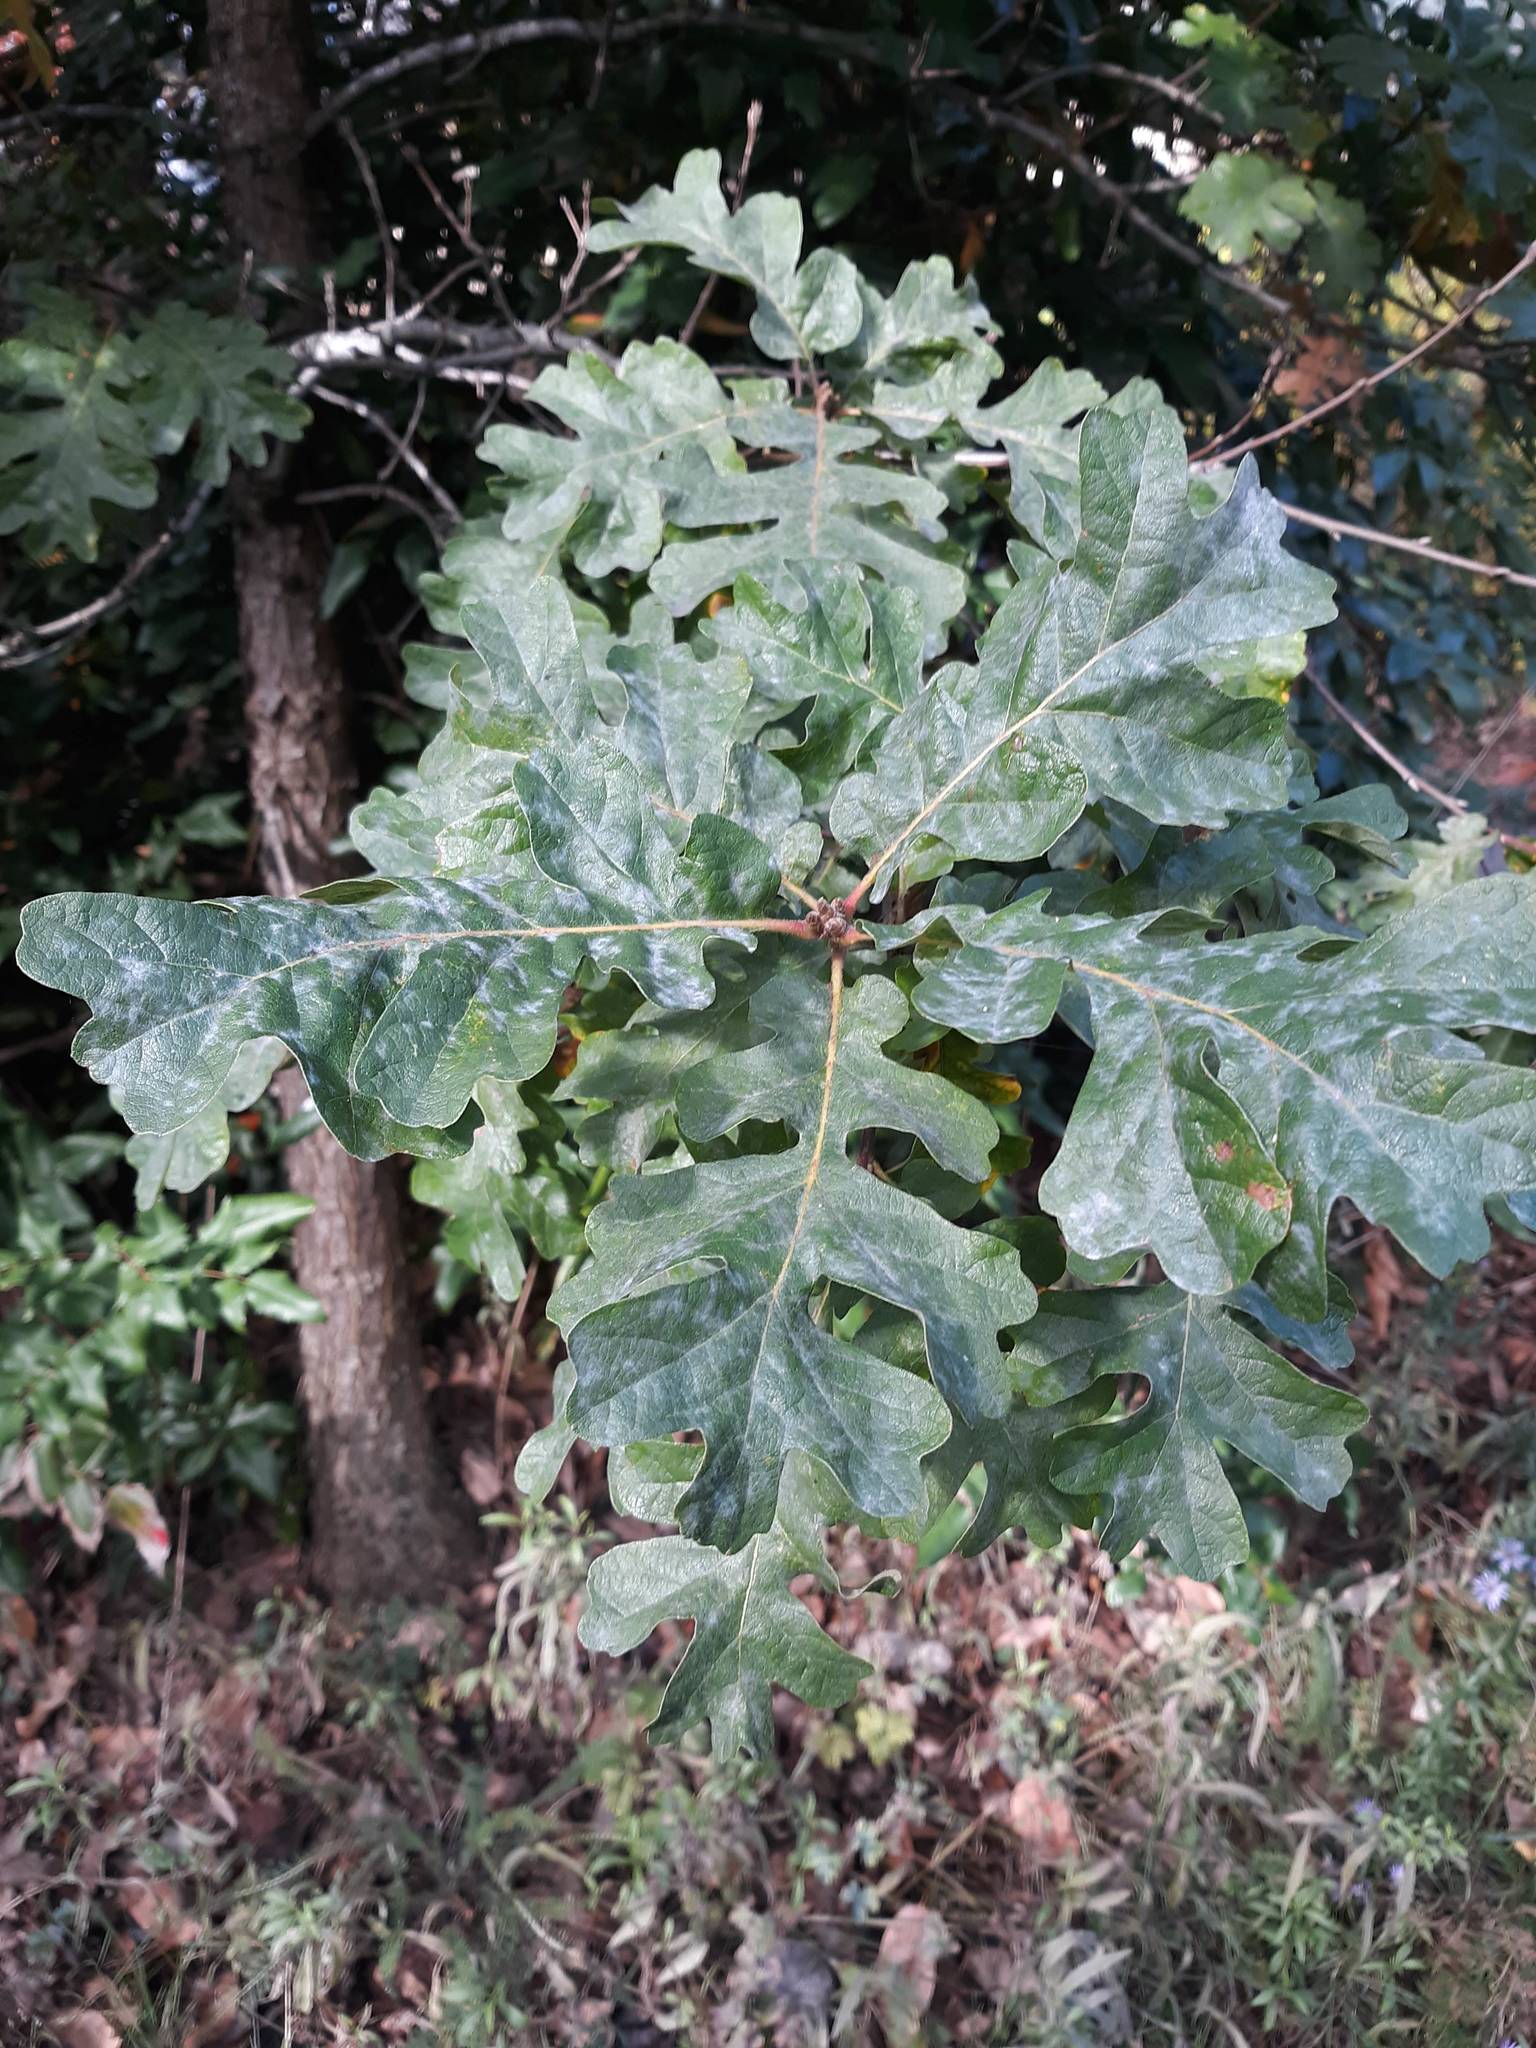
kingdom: Plantae
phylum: Tracheophyta
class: Magnoliopsida
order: Fagales
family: Fagaceae
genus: Quercus
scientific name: Quercus garryana
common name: Garry oak
